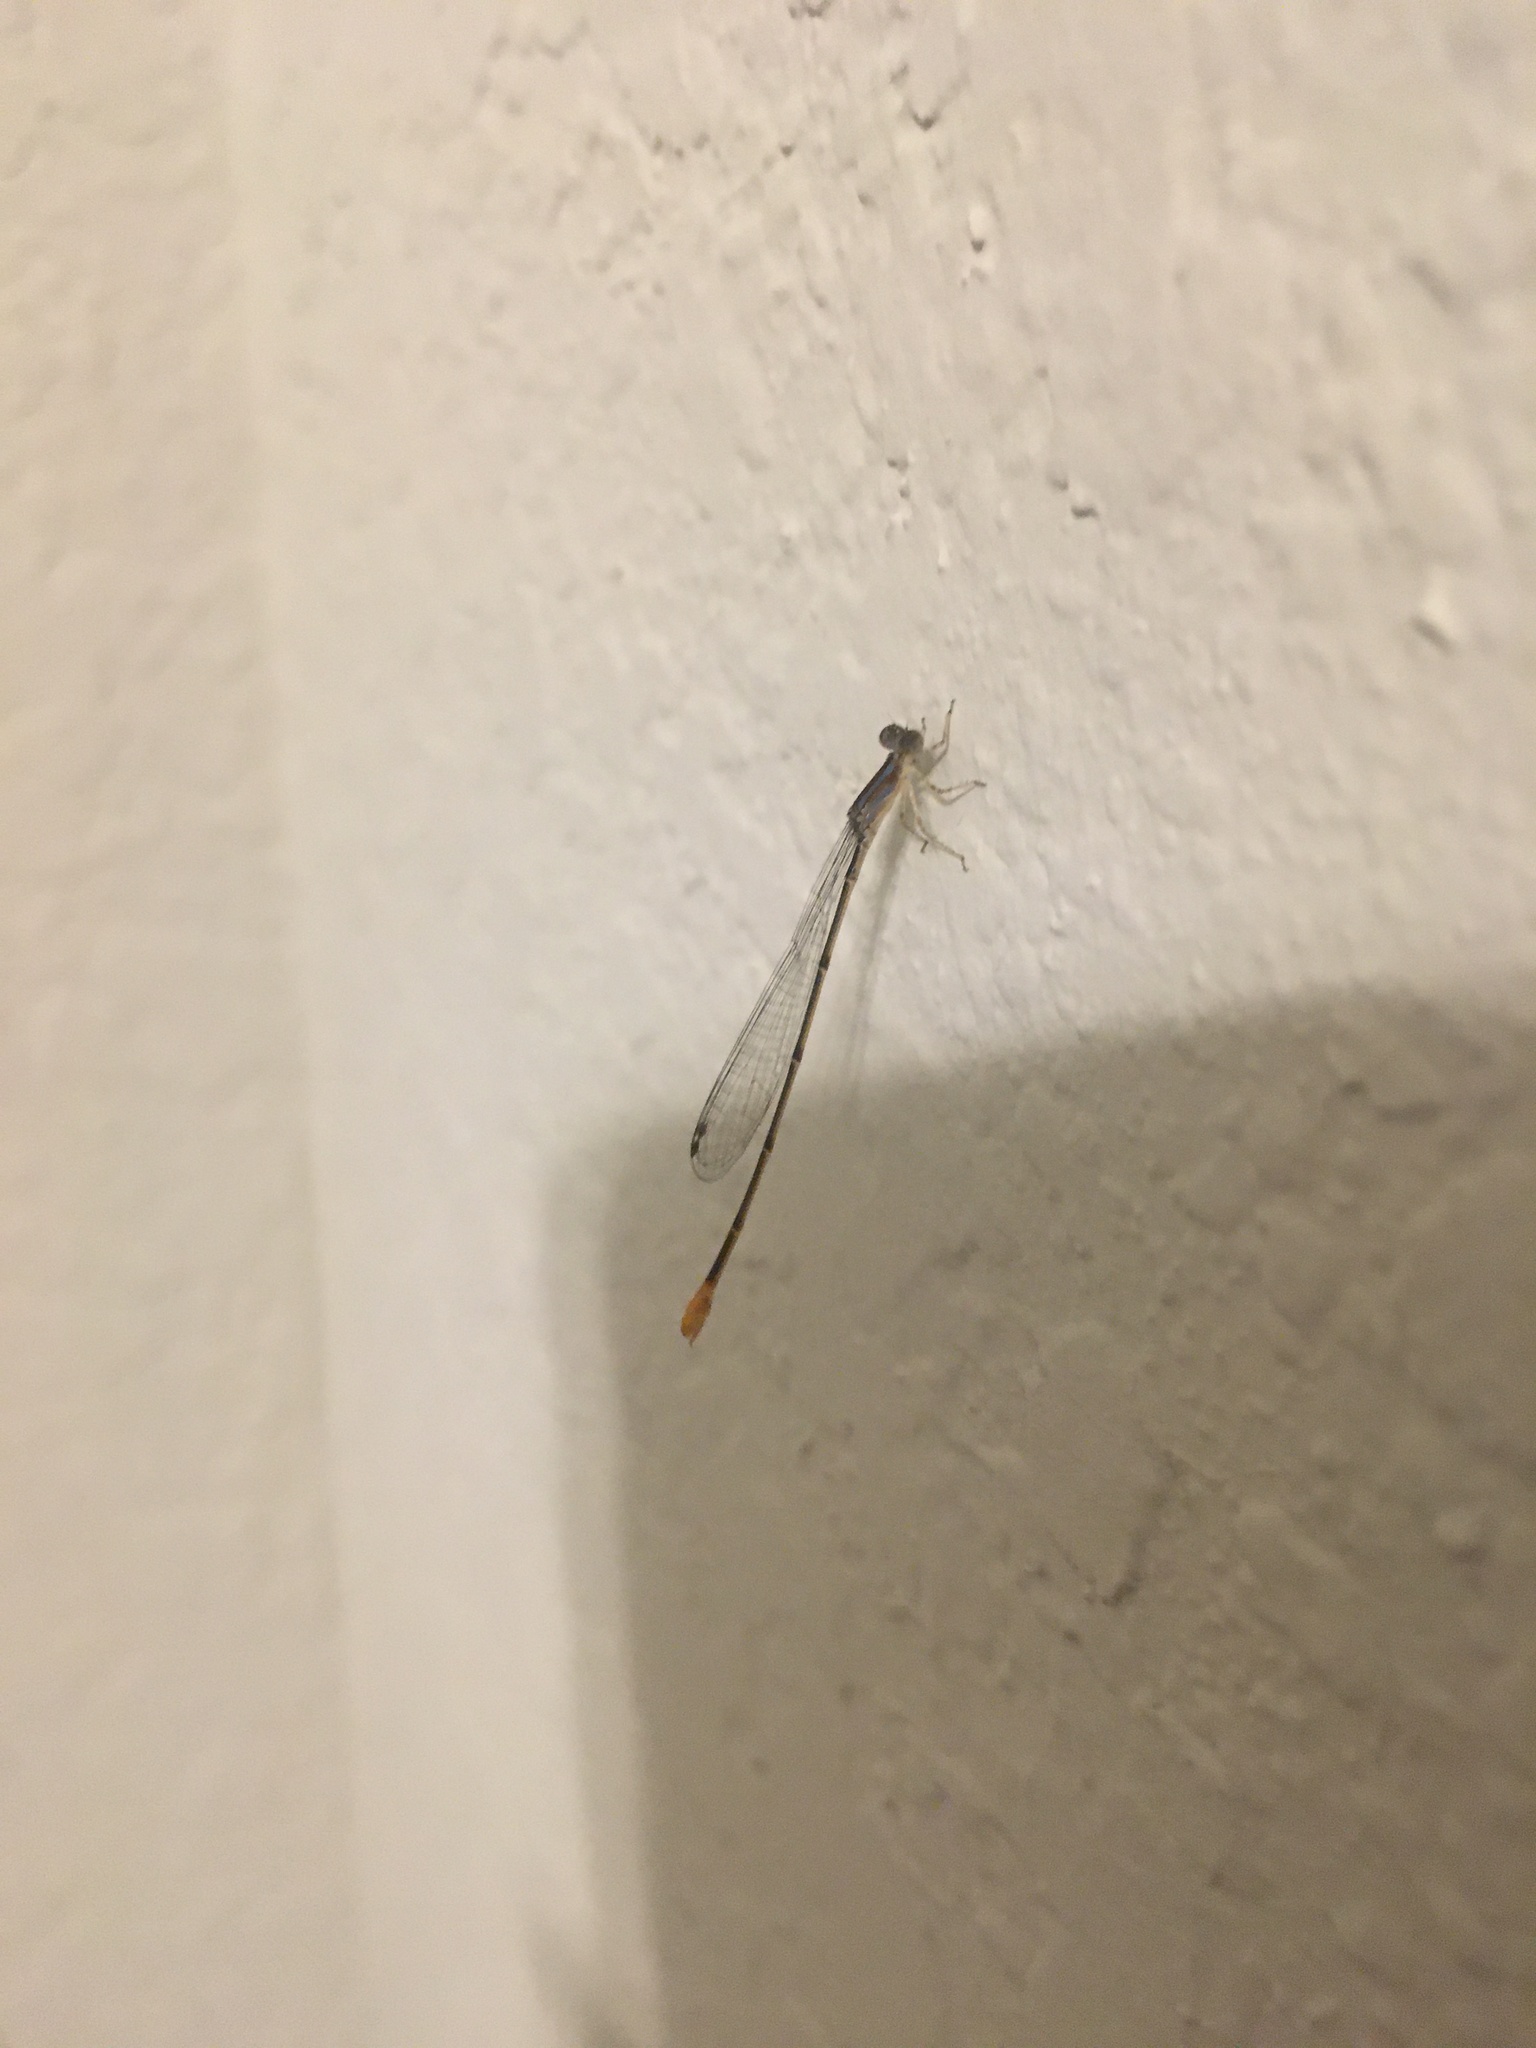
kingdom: Animalia
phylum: Arthropoda
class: Insecta
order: Odonata
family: Coenagrionidae
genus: Leptobasis
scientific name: Leptobasis lucifer
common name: Lucifer swampdamsel
